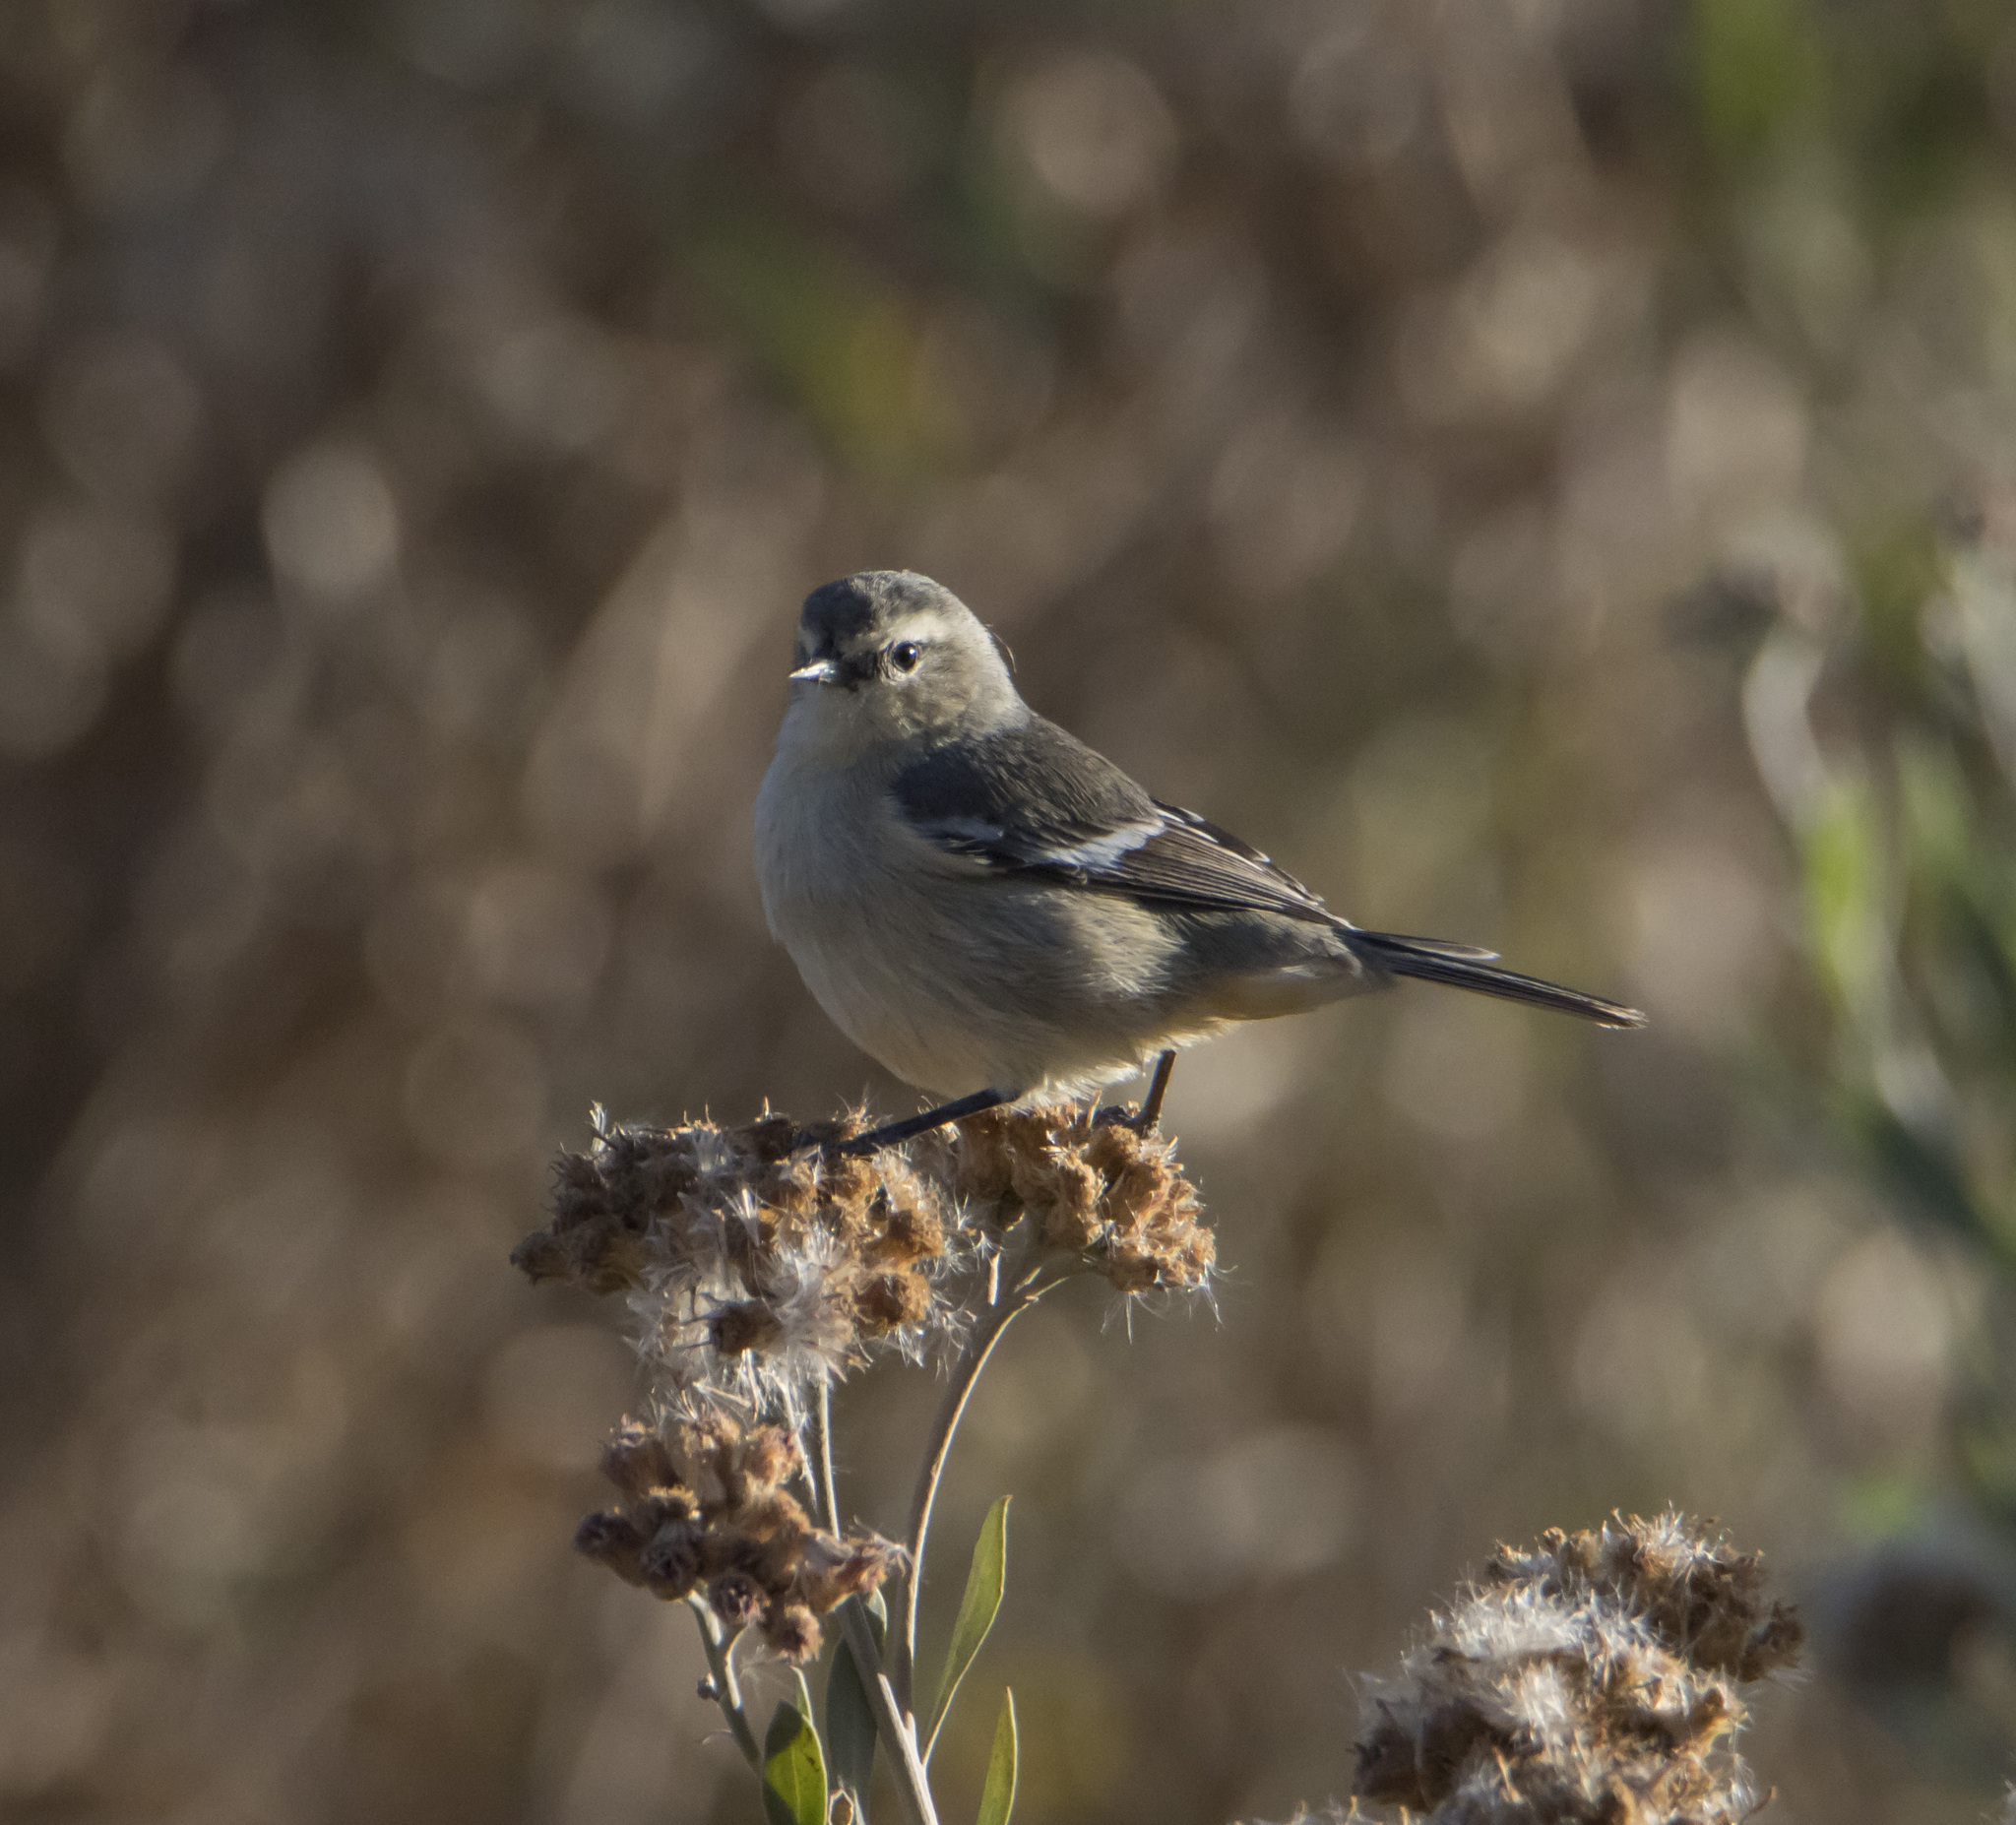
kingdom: Animalia
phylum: Chordata
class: Aves
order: Passeriformes
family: Thraupidae
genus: Conirostrum
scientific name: Conirostrum cinereum
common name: Cinereous conebill
